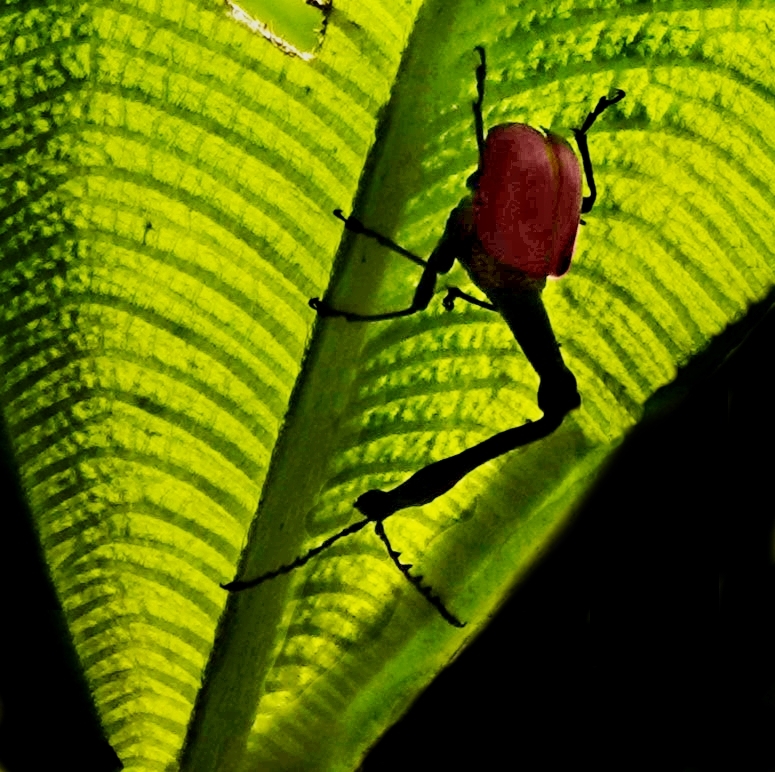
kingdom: Animalia
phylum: Arthropoda
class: Insecta
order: Coleoptera
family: Attelabidae
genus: Trachelophorus
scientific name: Trachelophorus giraffa
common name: Giraffe weevil
